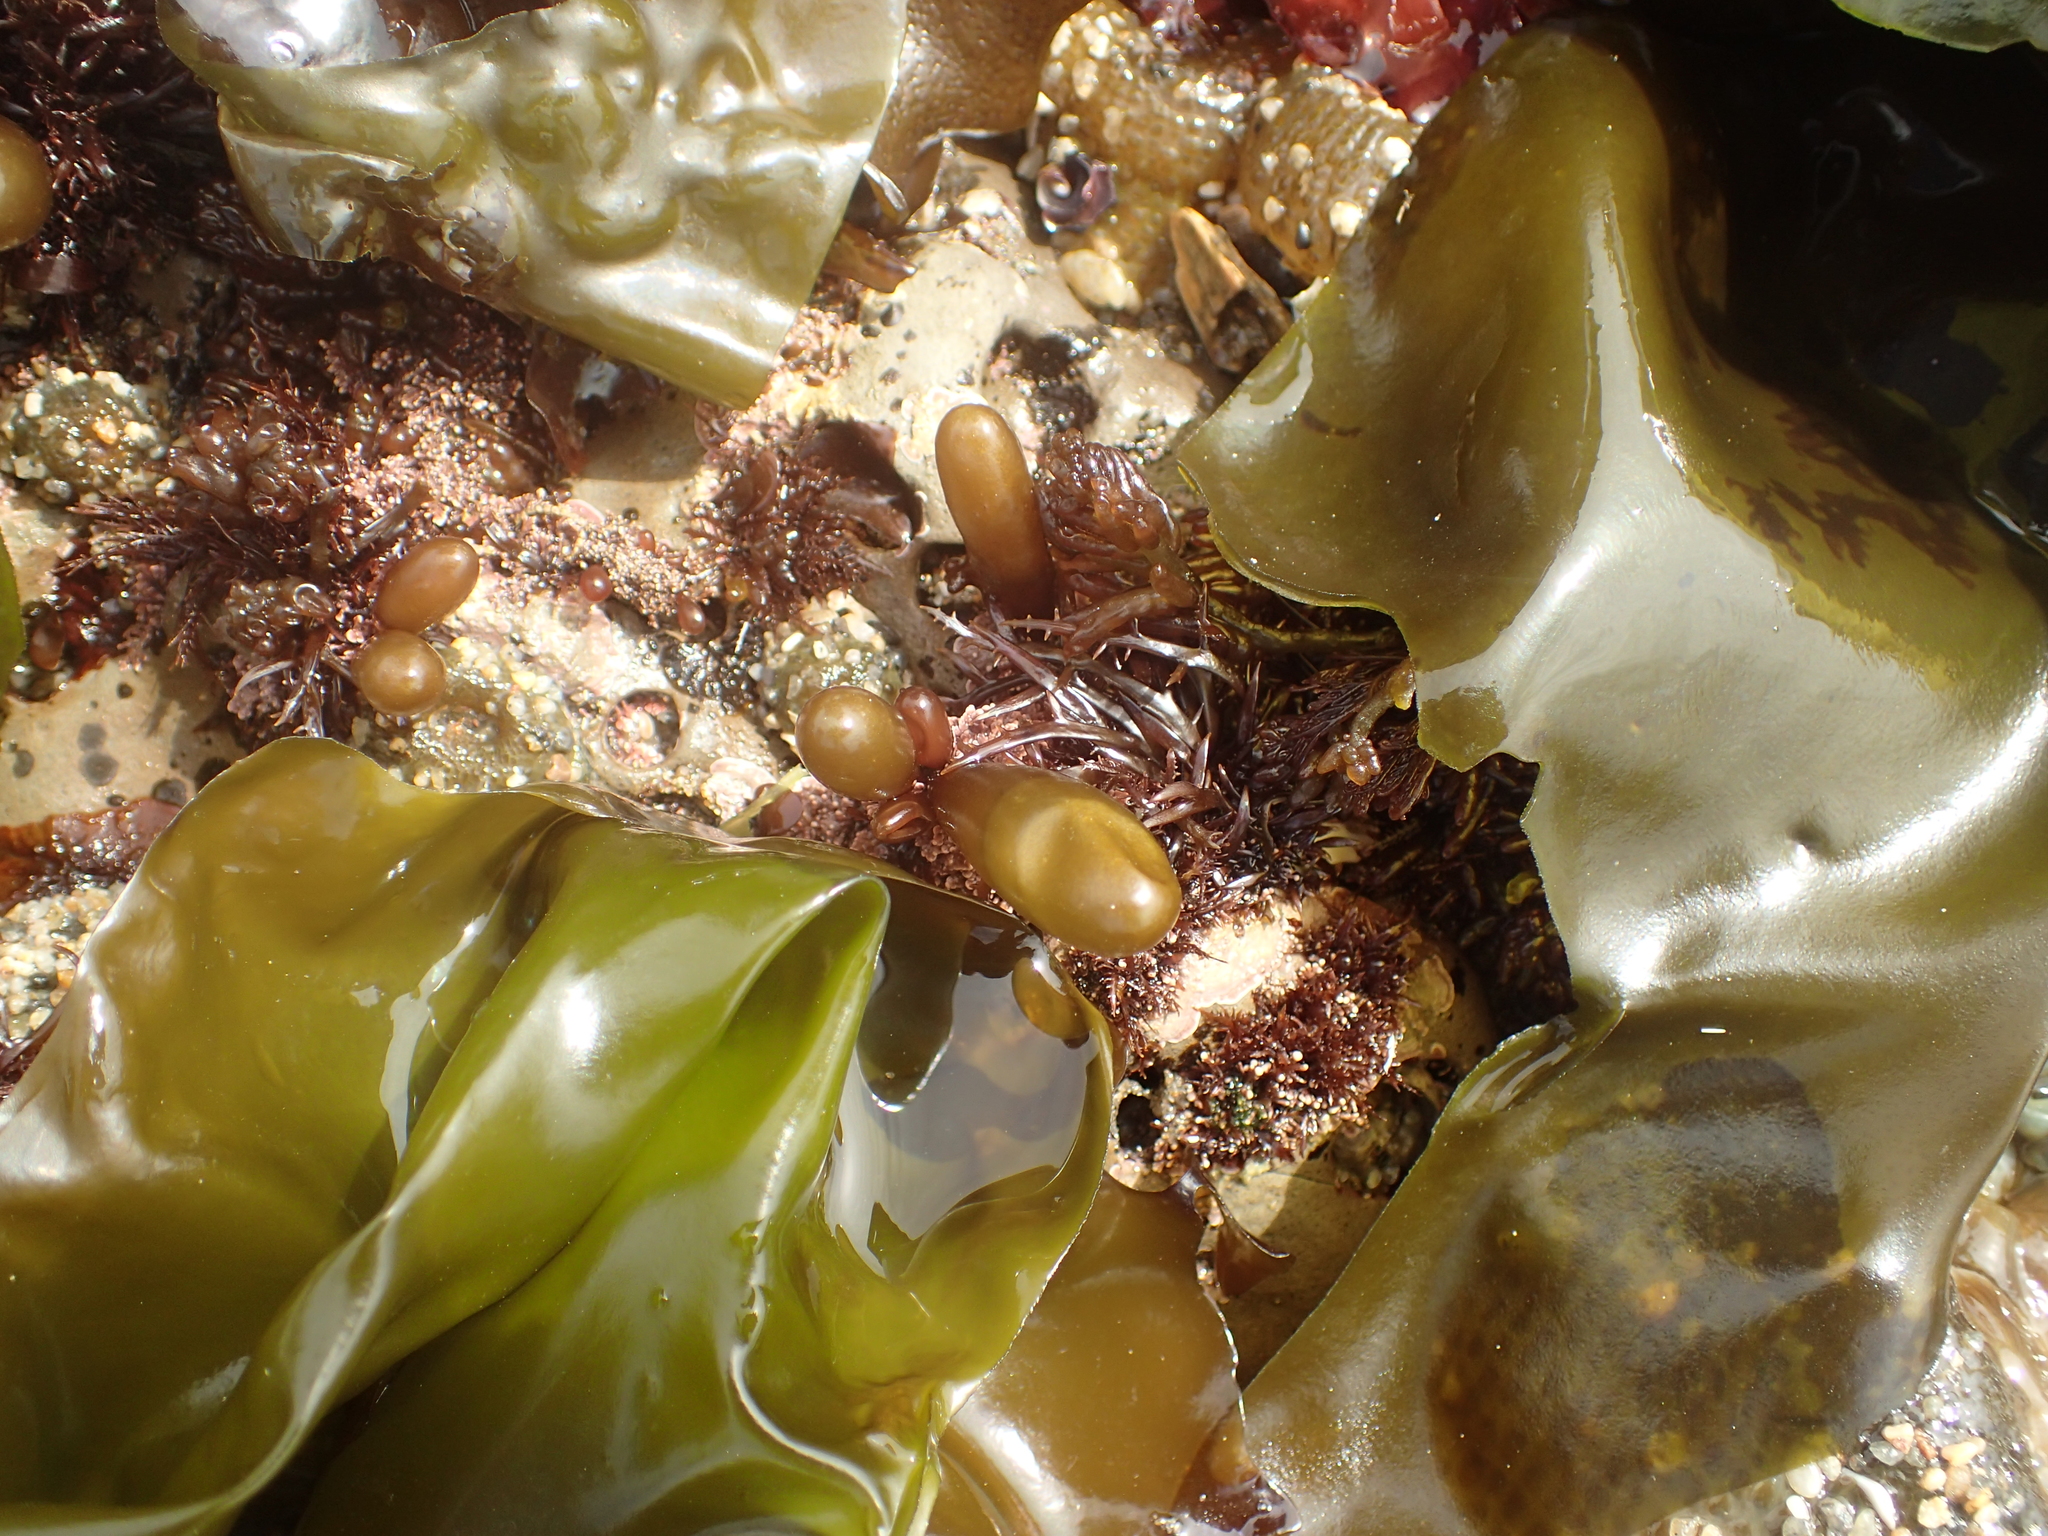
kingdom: Plantae
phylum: Rhodophyta
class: Florideophyceae
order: Palmariales
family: Palmariaceae
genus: Halosaccion
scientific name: Halosaccion glandiforme
